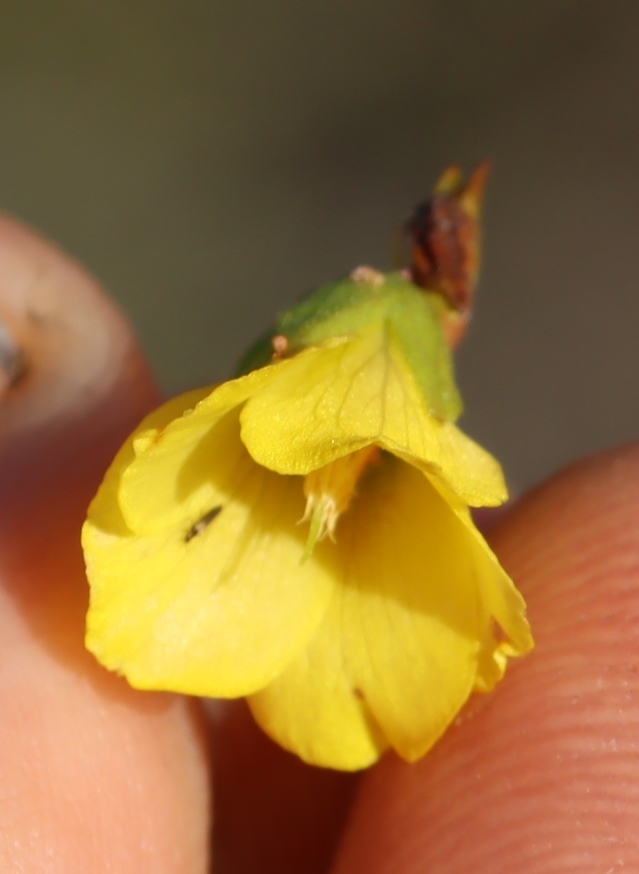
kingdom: Plantae
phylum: Tracheophyta
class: Magnoliopsida
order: Malvales
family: Malvaceae
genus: Hermannia
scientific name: Hermannia saccifera
